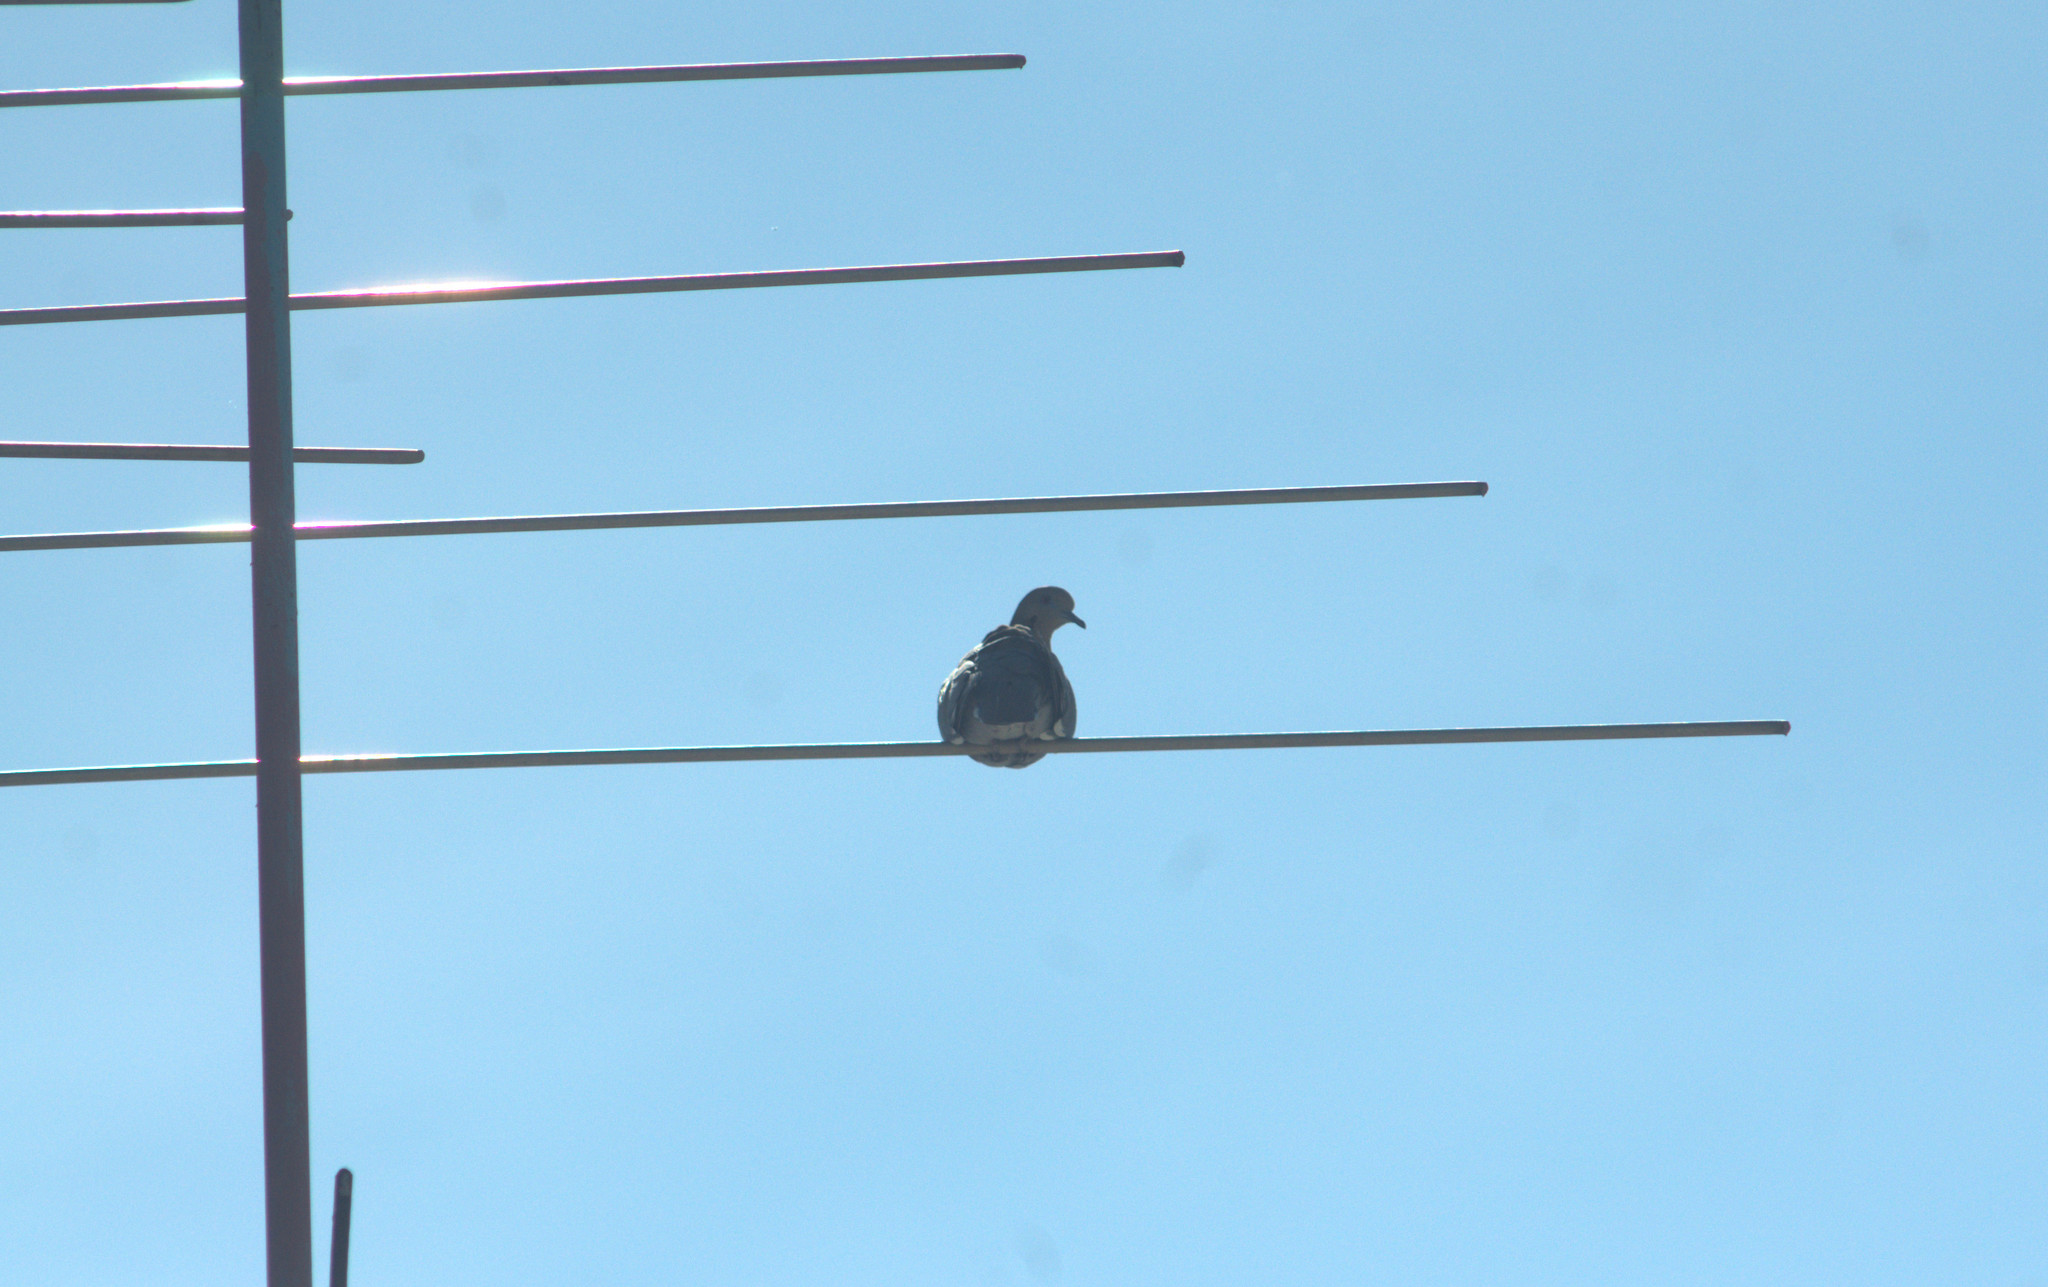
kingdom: Animalia
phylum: Chordata
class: Aves
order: Columbiformes
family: Columbidae
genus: Zenaida
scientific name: Zenaida asiatica
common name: White-winged dove
